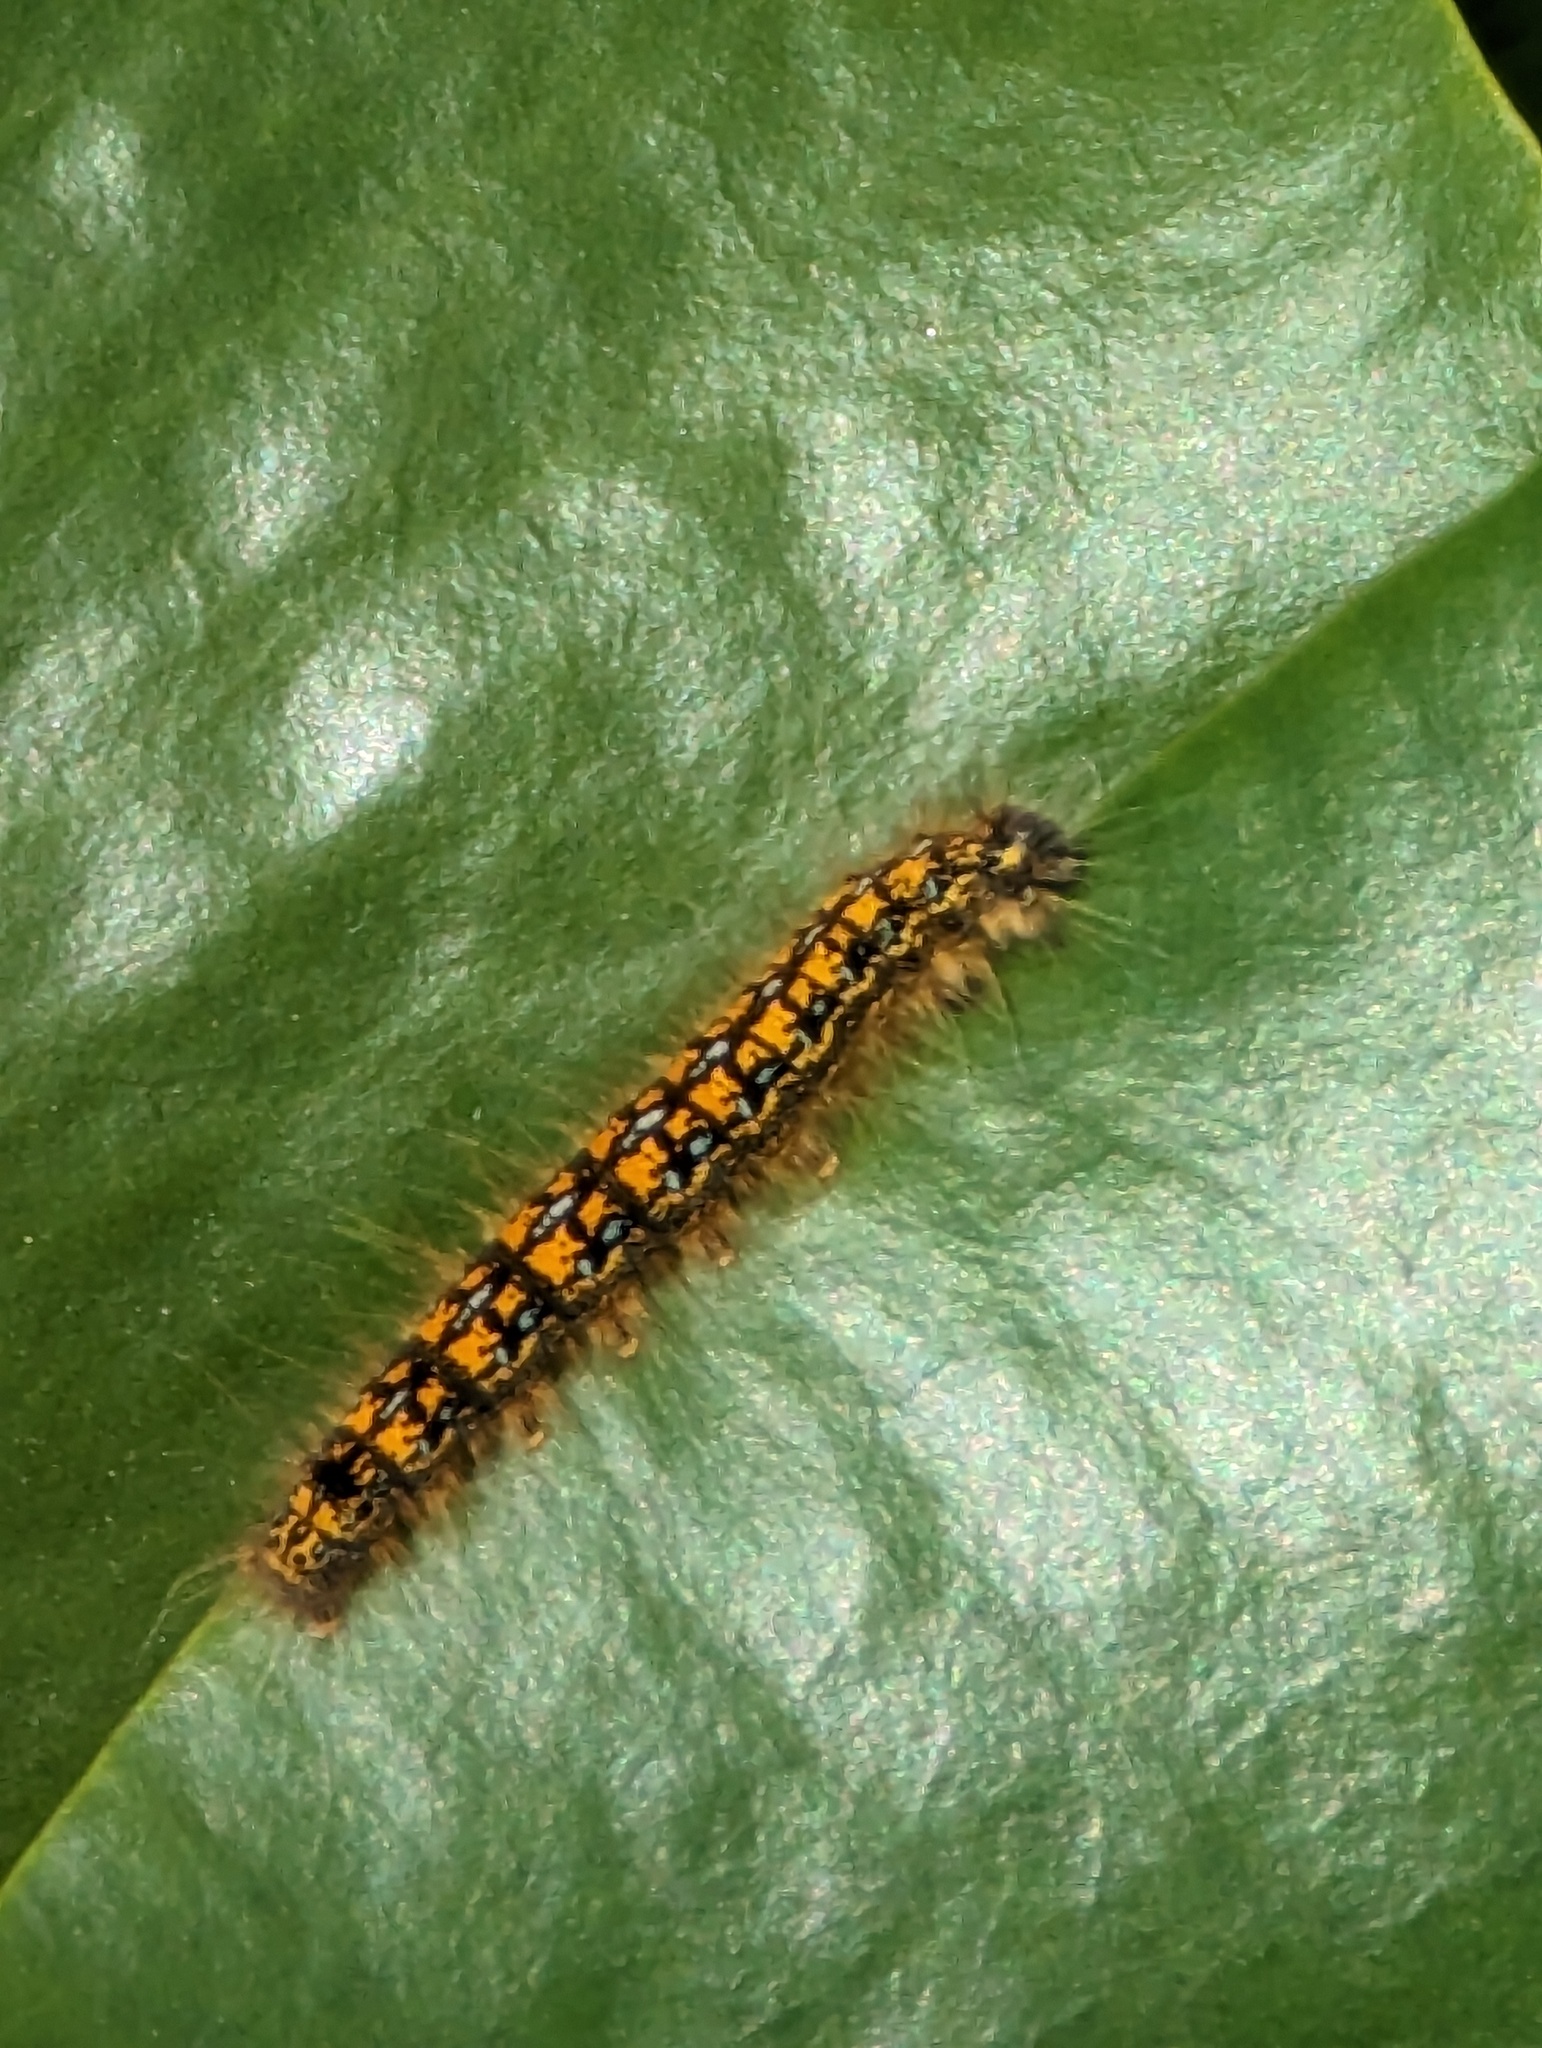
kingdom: Animalia
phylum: Arthropoda
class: Insecta
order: Lepidoptera
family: Lasiocampidae
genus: Malacosoma
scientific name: Malacosoma californica
